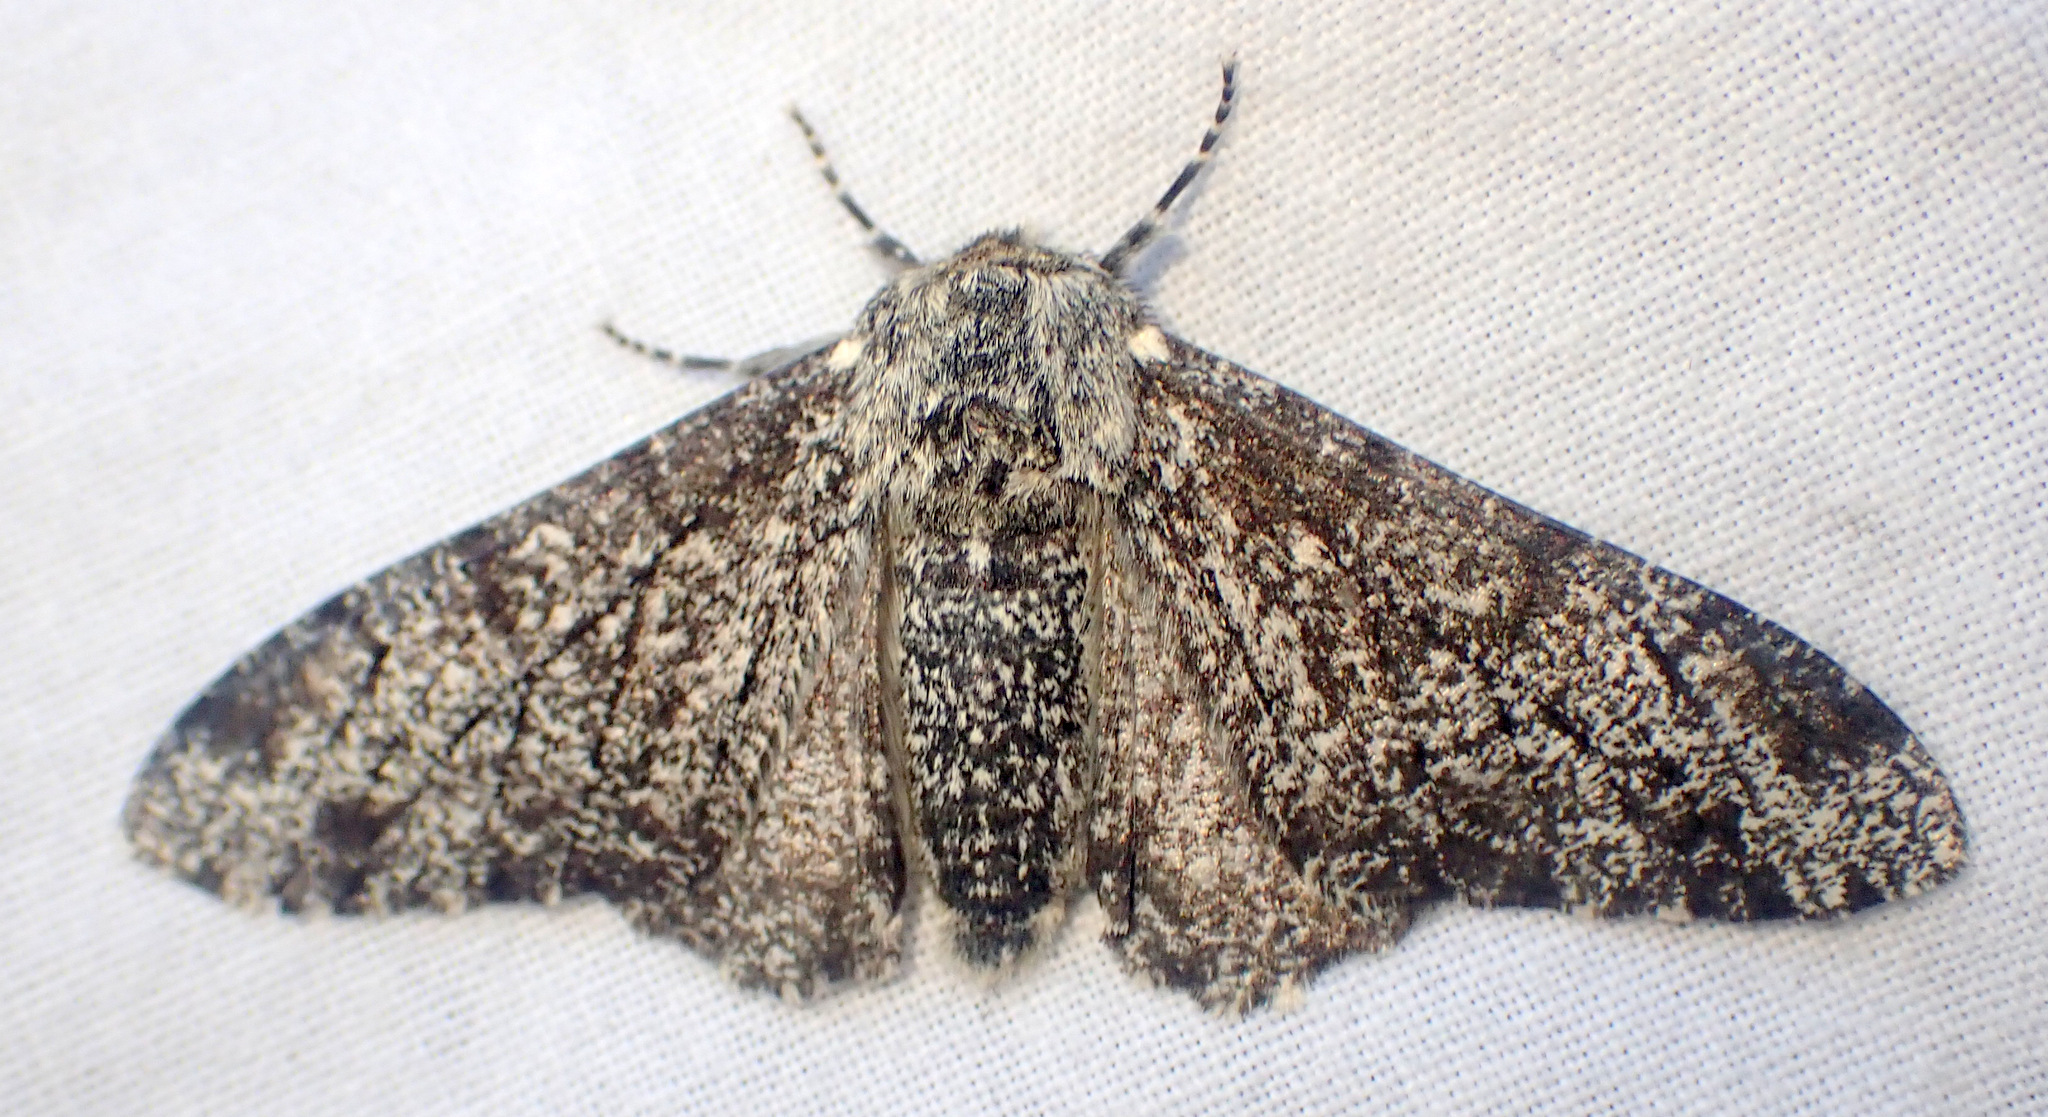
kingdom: Animalia
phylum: Arthropoda
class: Insecta
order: Lepidoptera
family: Geometridae
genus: Biston
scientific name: Biston betularia
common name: Peppered moth
